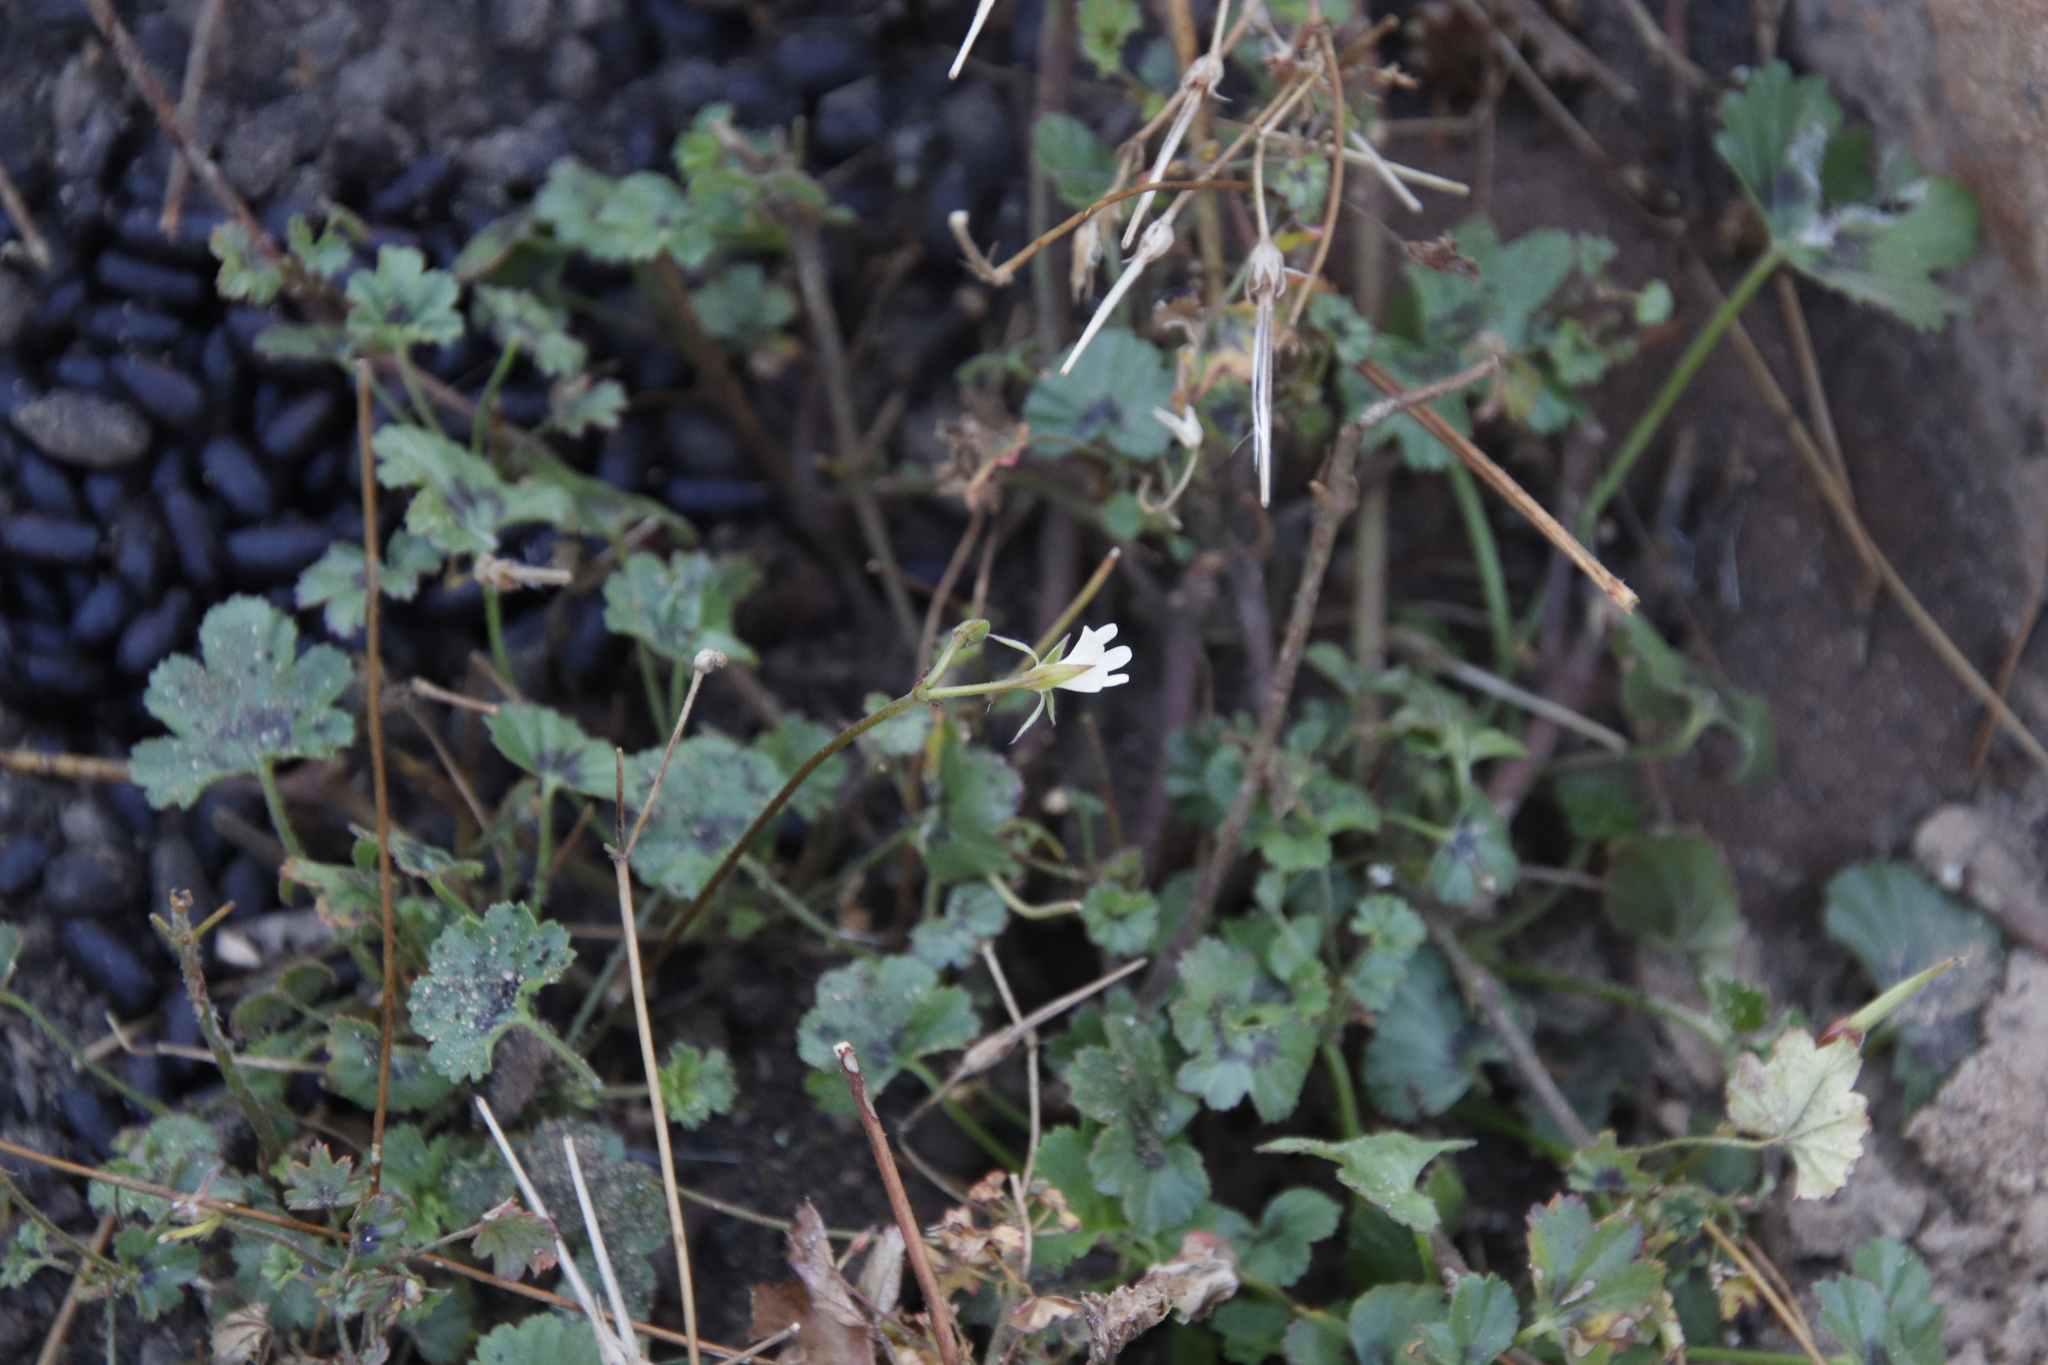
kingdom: Plantae
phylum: Tracheophyta
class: Magnoliopsida
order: Geraniales
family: Geraniaceae
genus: Pelargonium
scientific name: Pelargonium elongatum
